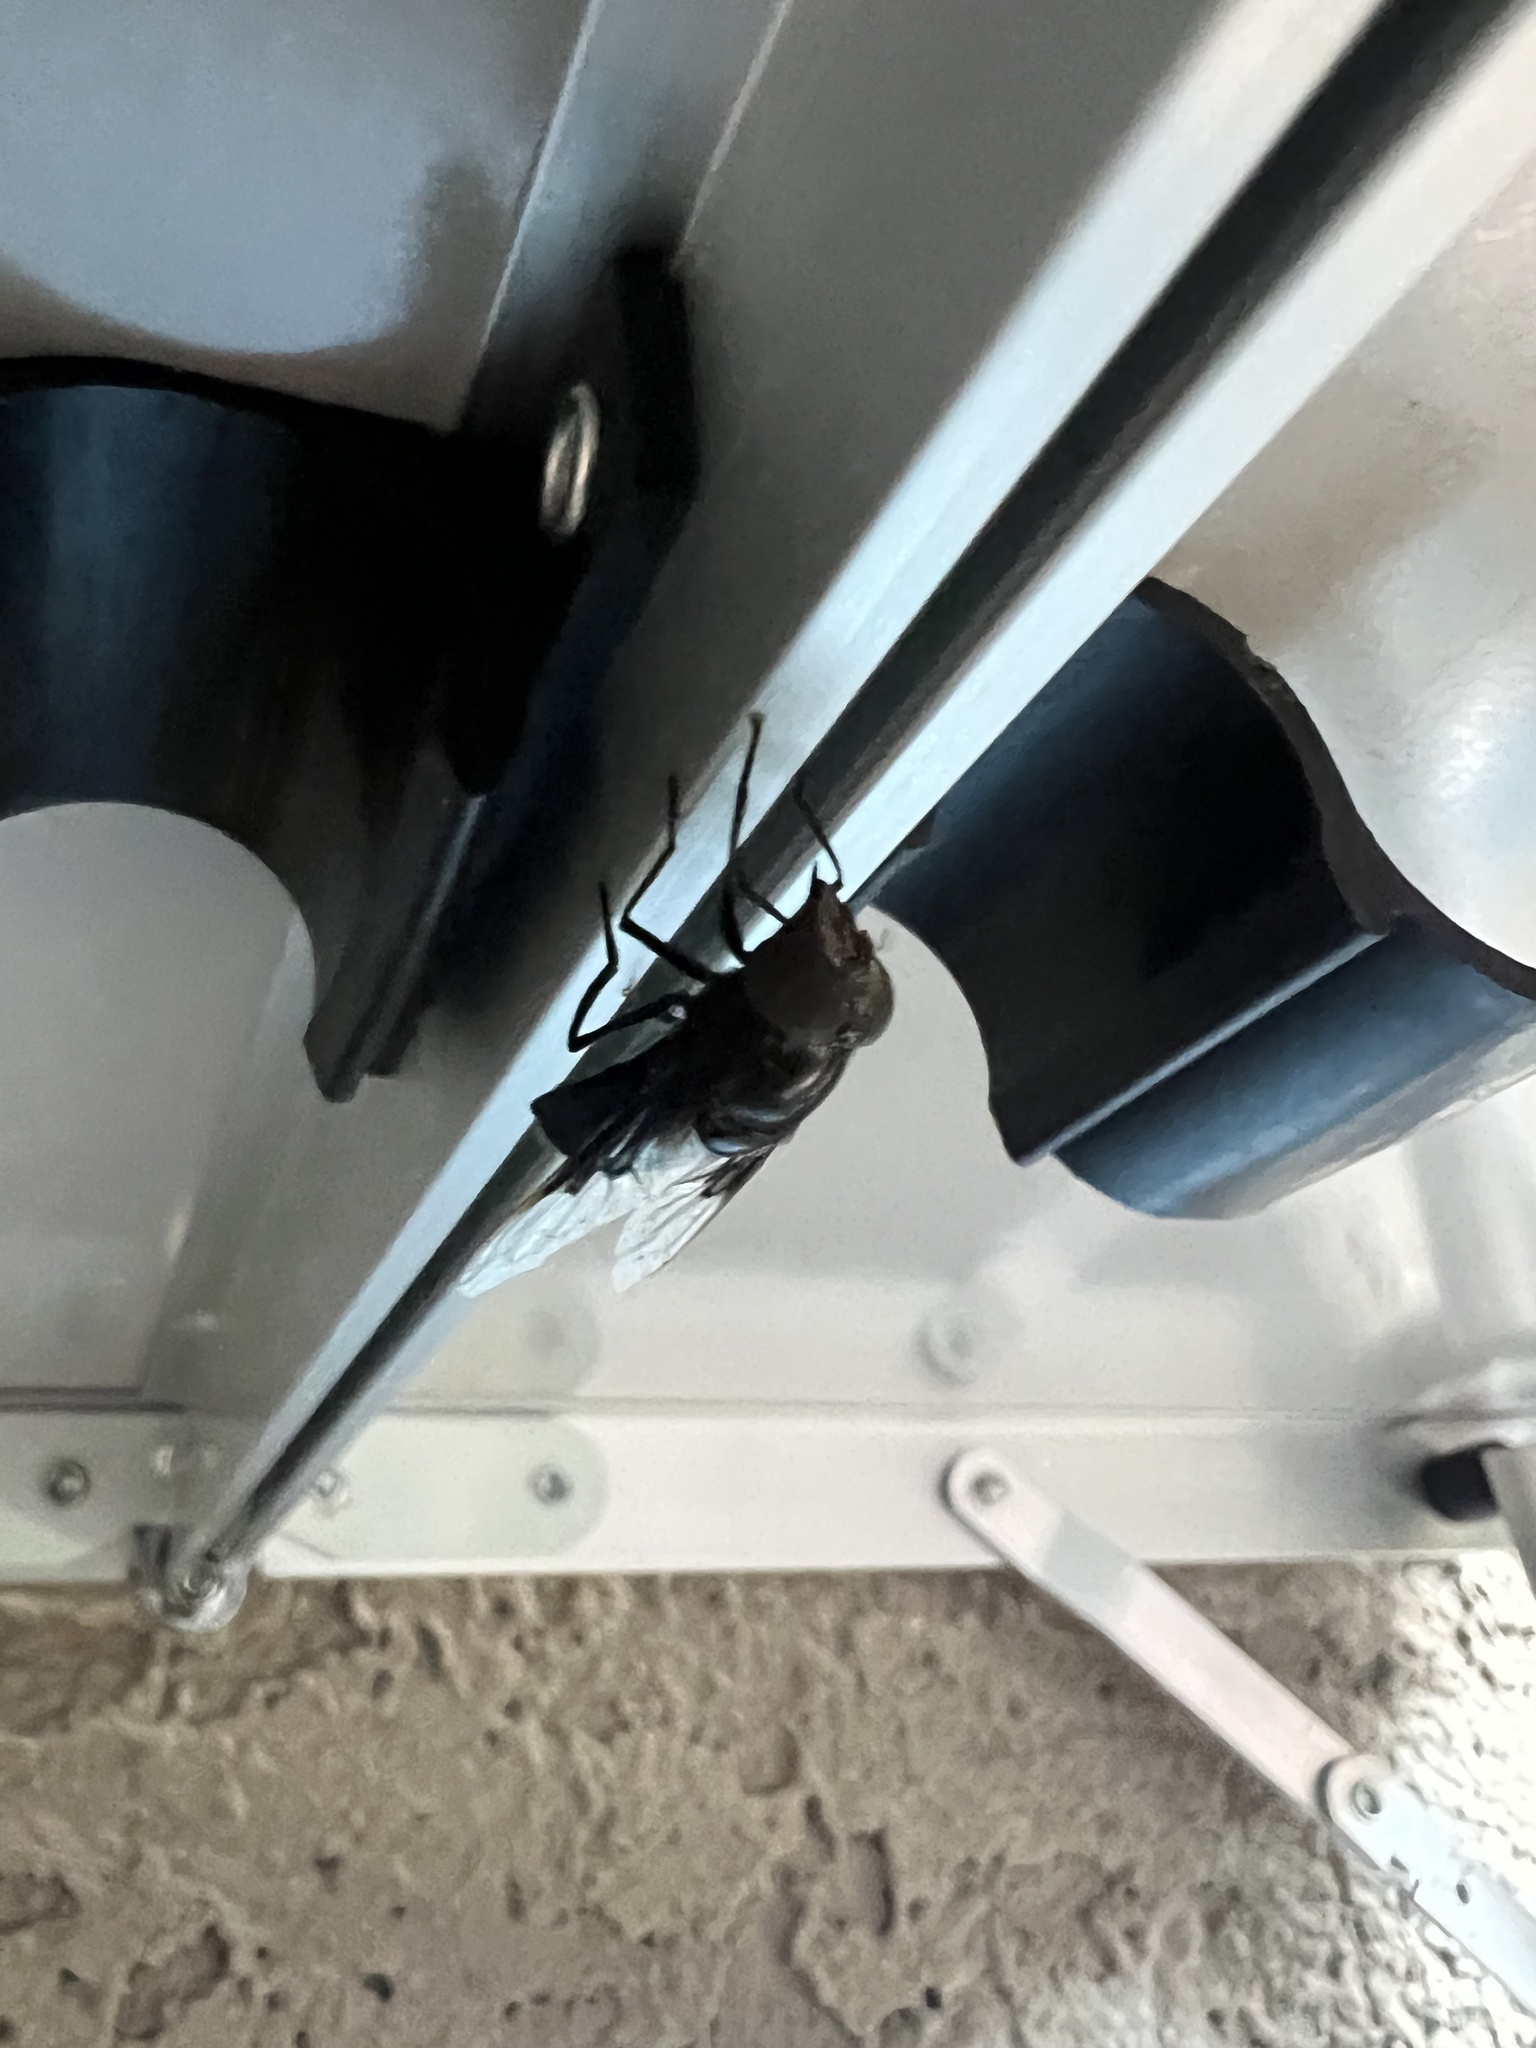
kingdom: Animalia
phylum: Arthropoda
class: Insecta
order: Diptera
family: Syrphidae
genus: Copestylum
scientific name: Copestylum mexicanum
